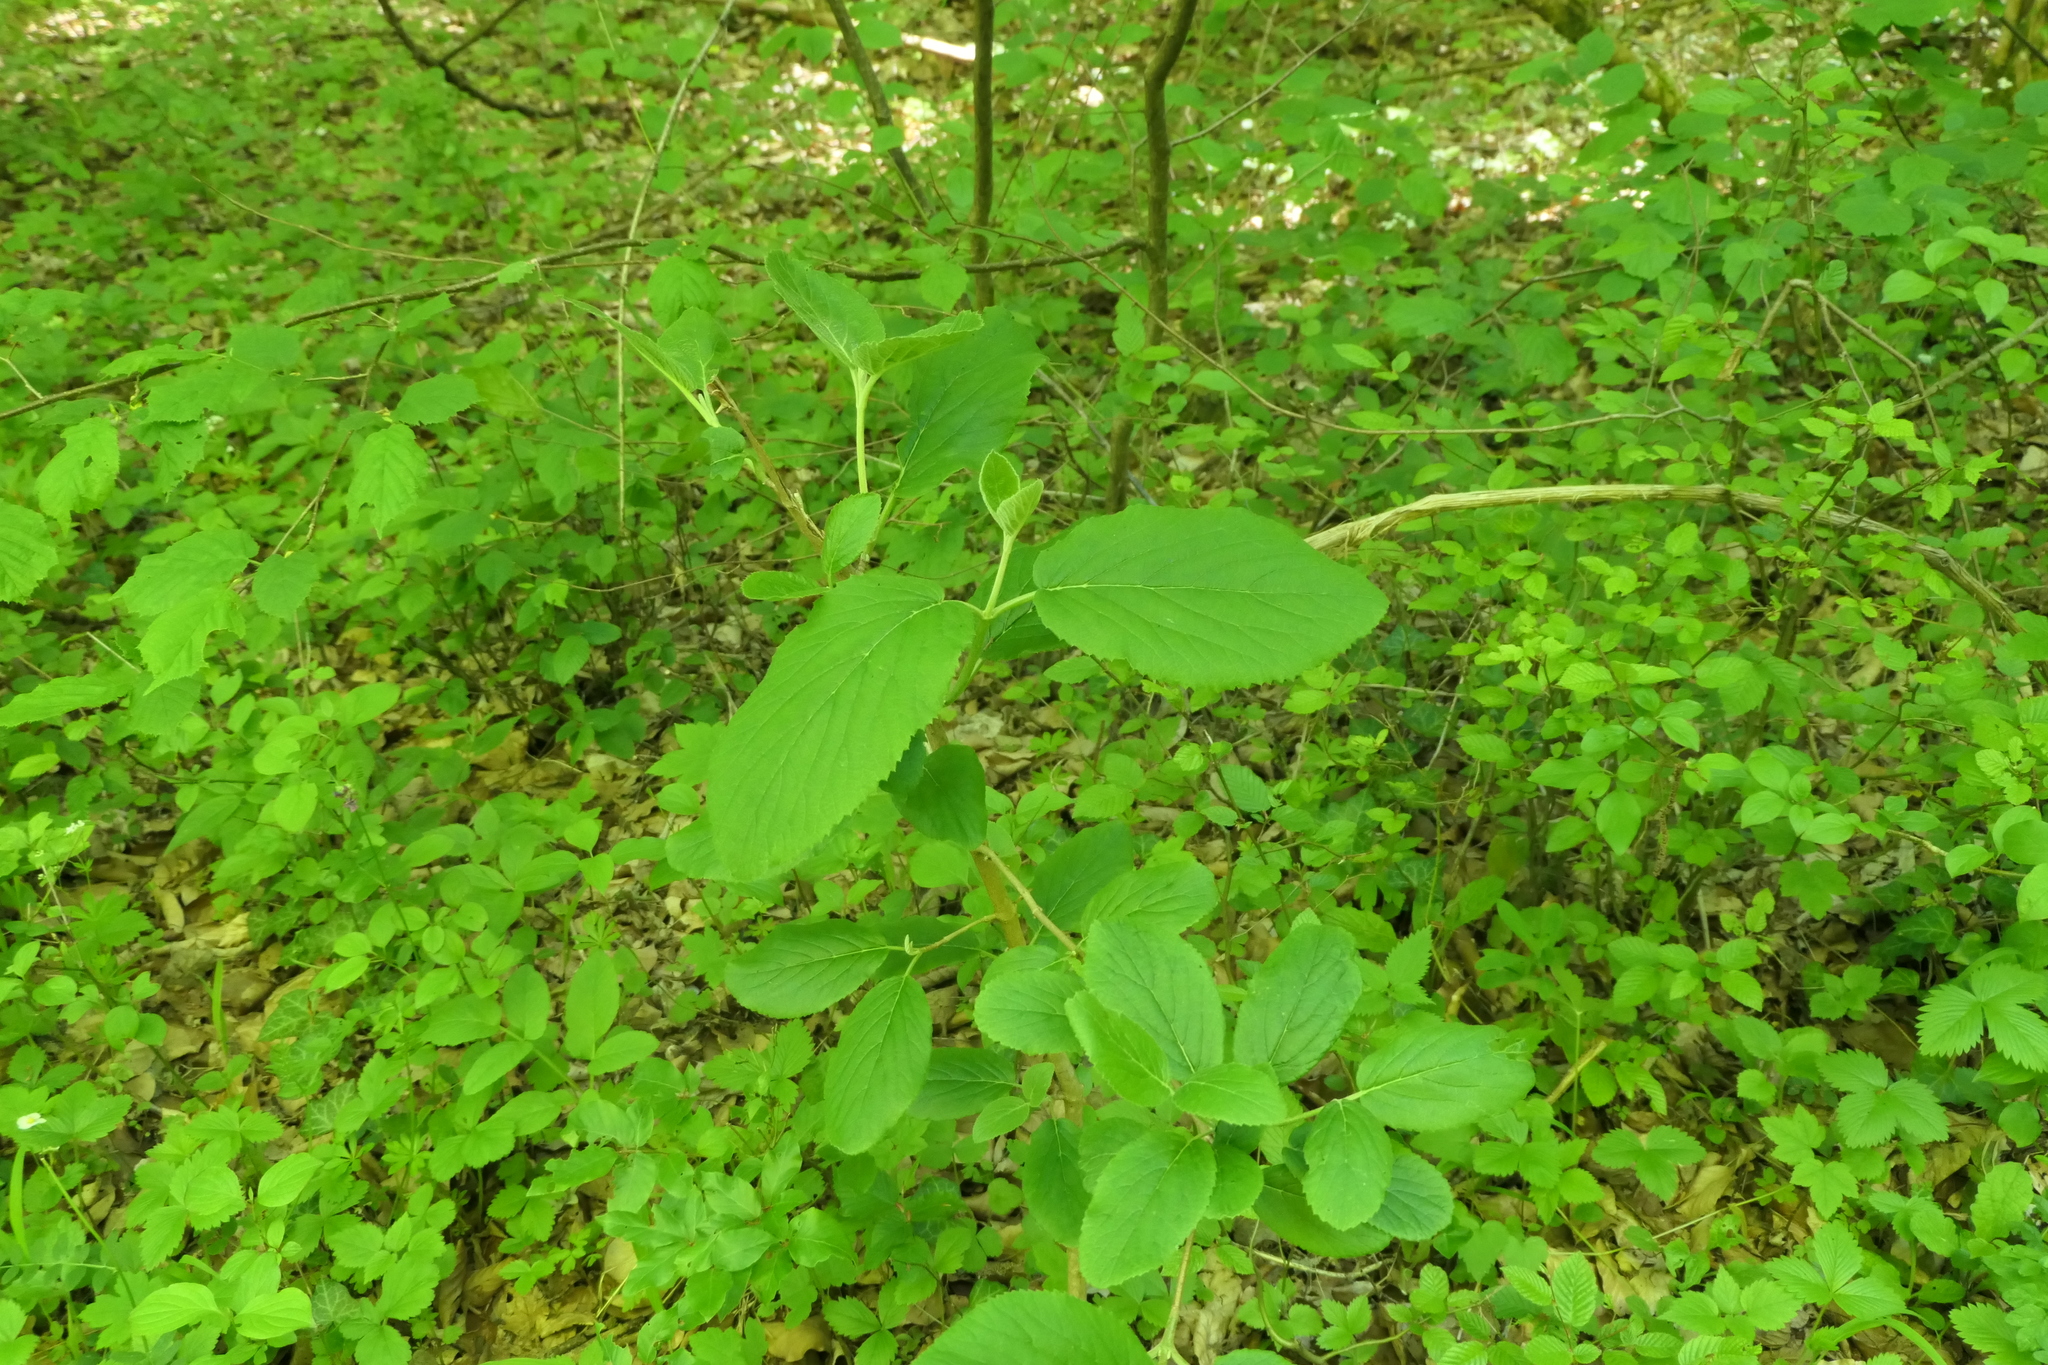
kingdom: Plantae
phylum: Tracheophyta
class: Magnoliopsida
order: Dipsacales
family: Viburnaceae
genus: Viburnum
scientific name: Viburnum lantana
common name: Wayfaring tree
